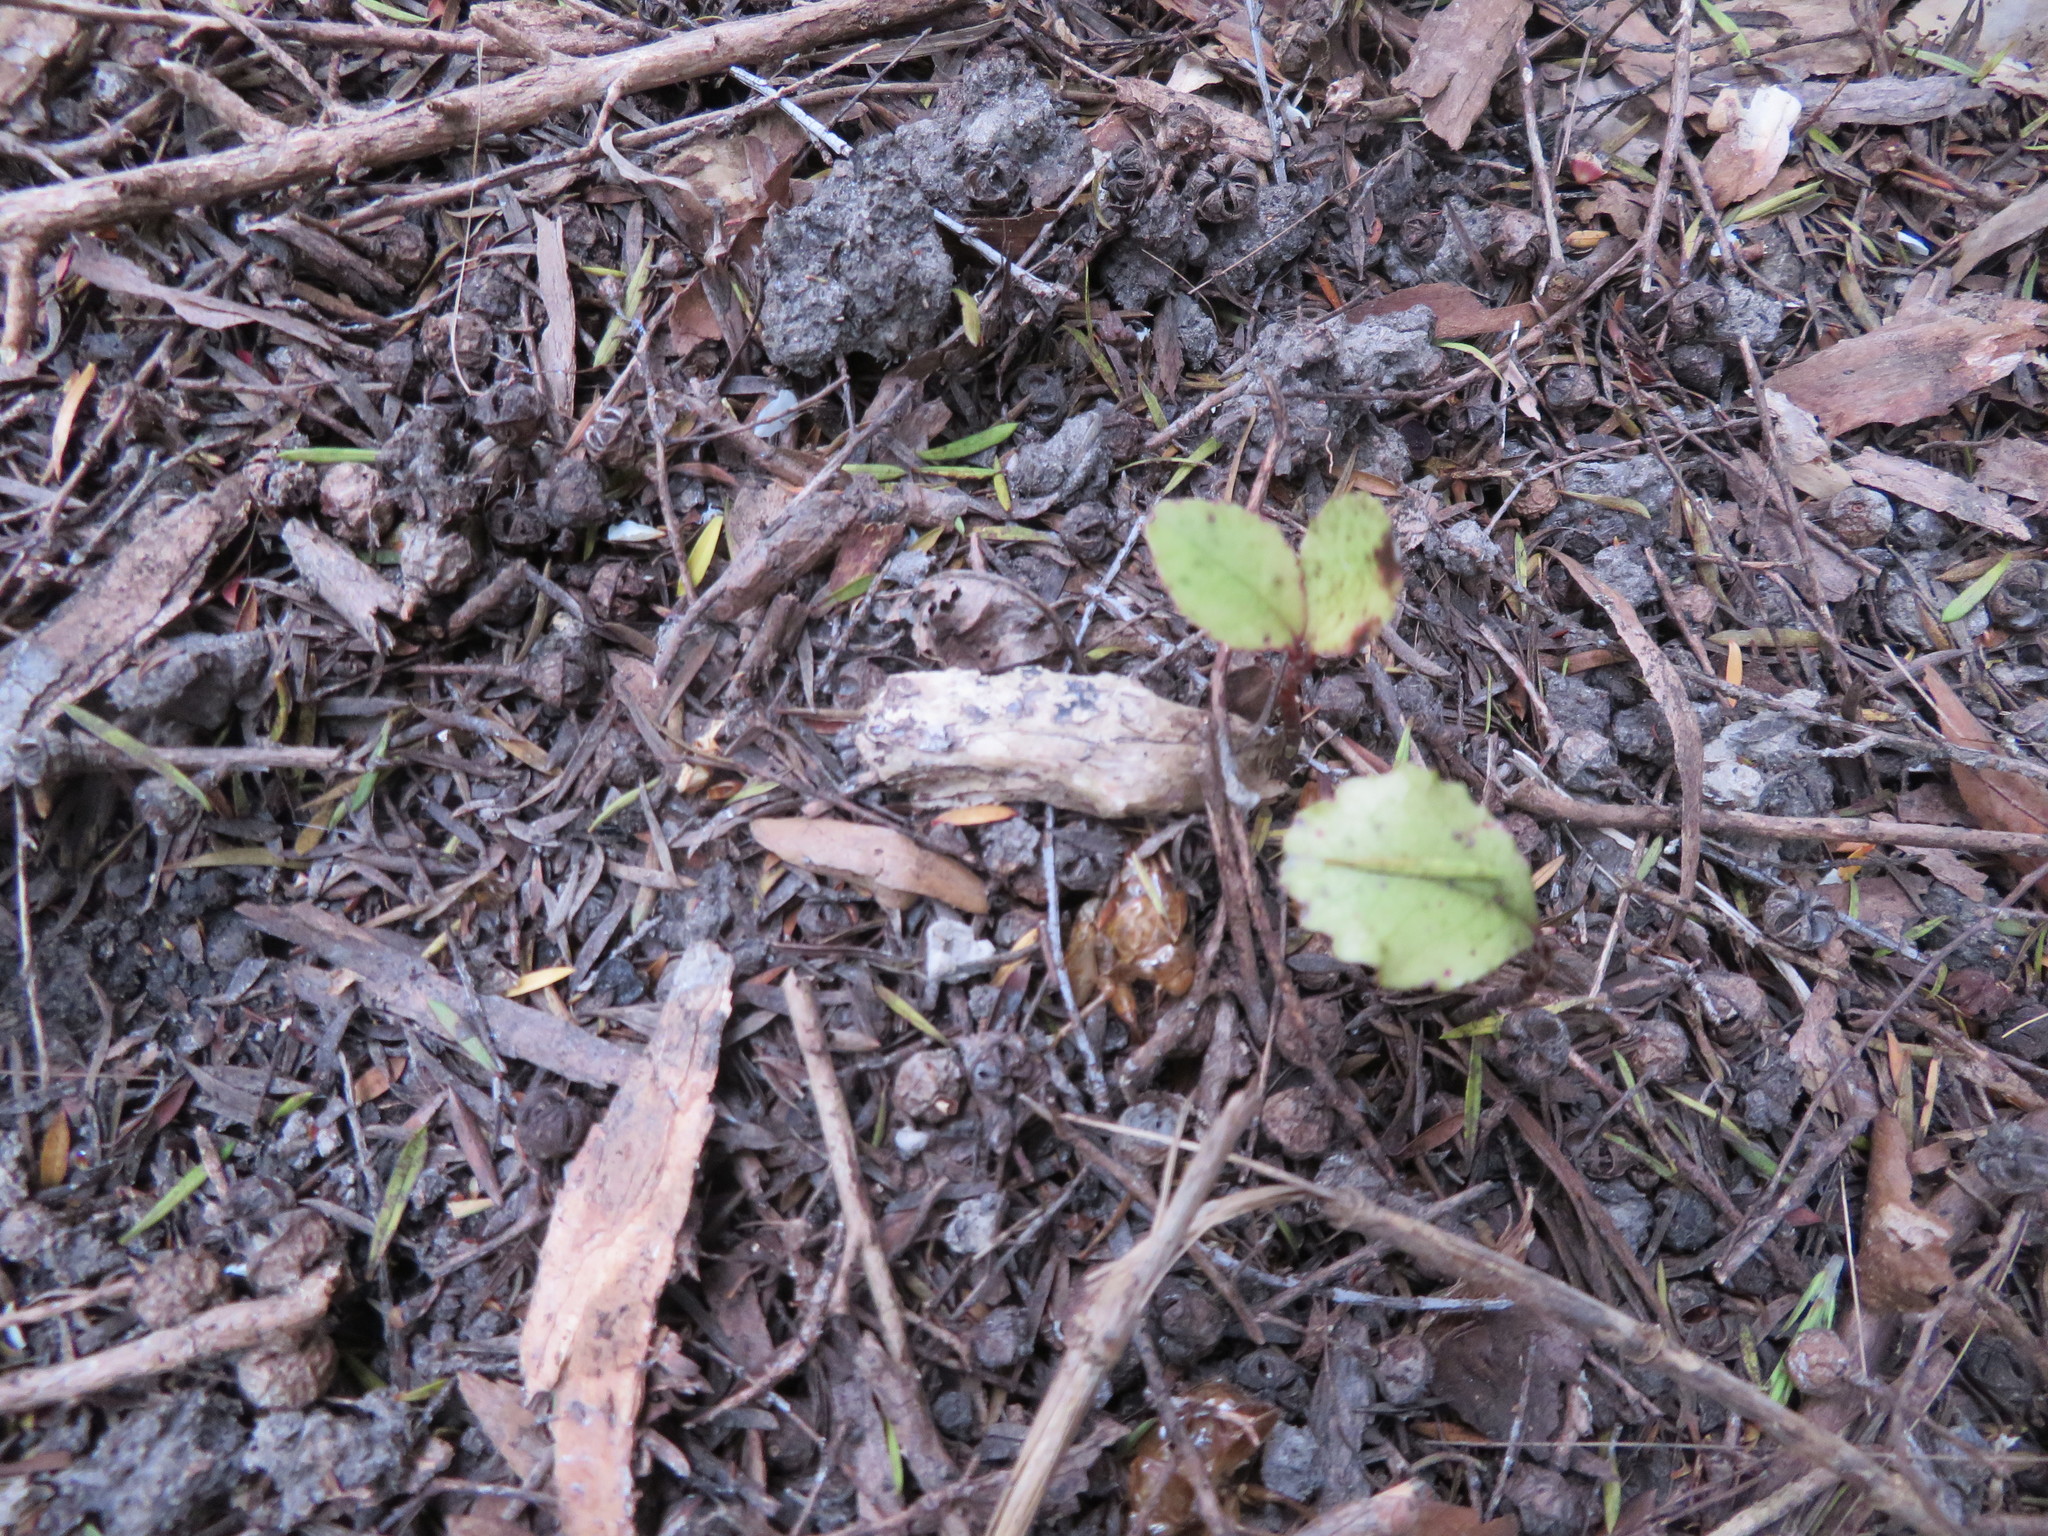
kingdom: Plantae
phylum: Tracheophyta
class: Magnoliopsida
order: Ericales
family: Primulaceae
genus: Myrsine
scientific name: Myrsine australis
